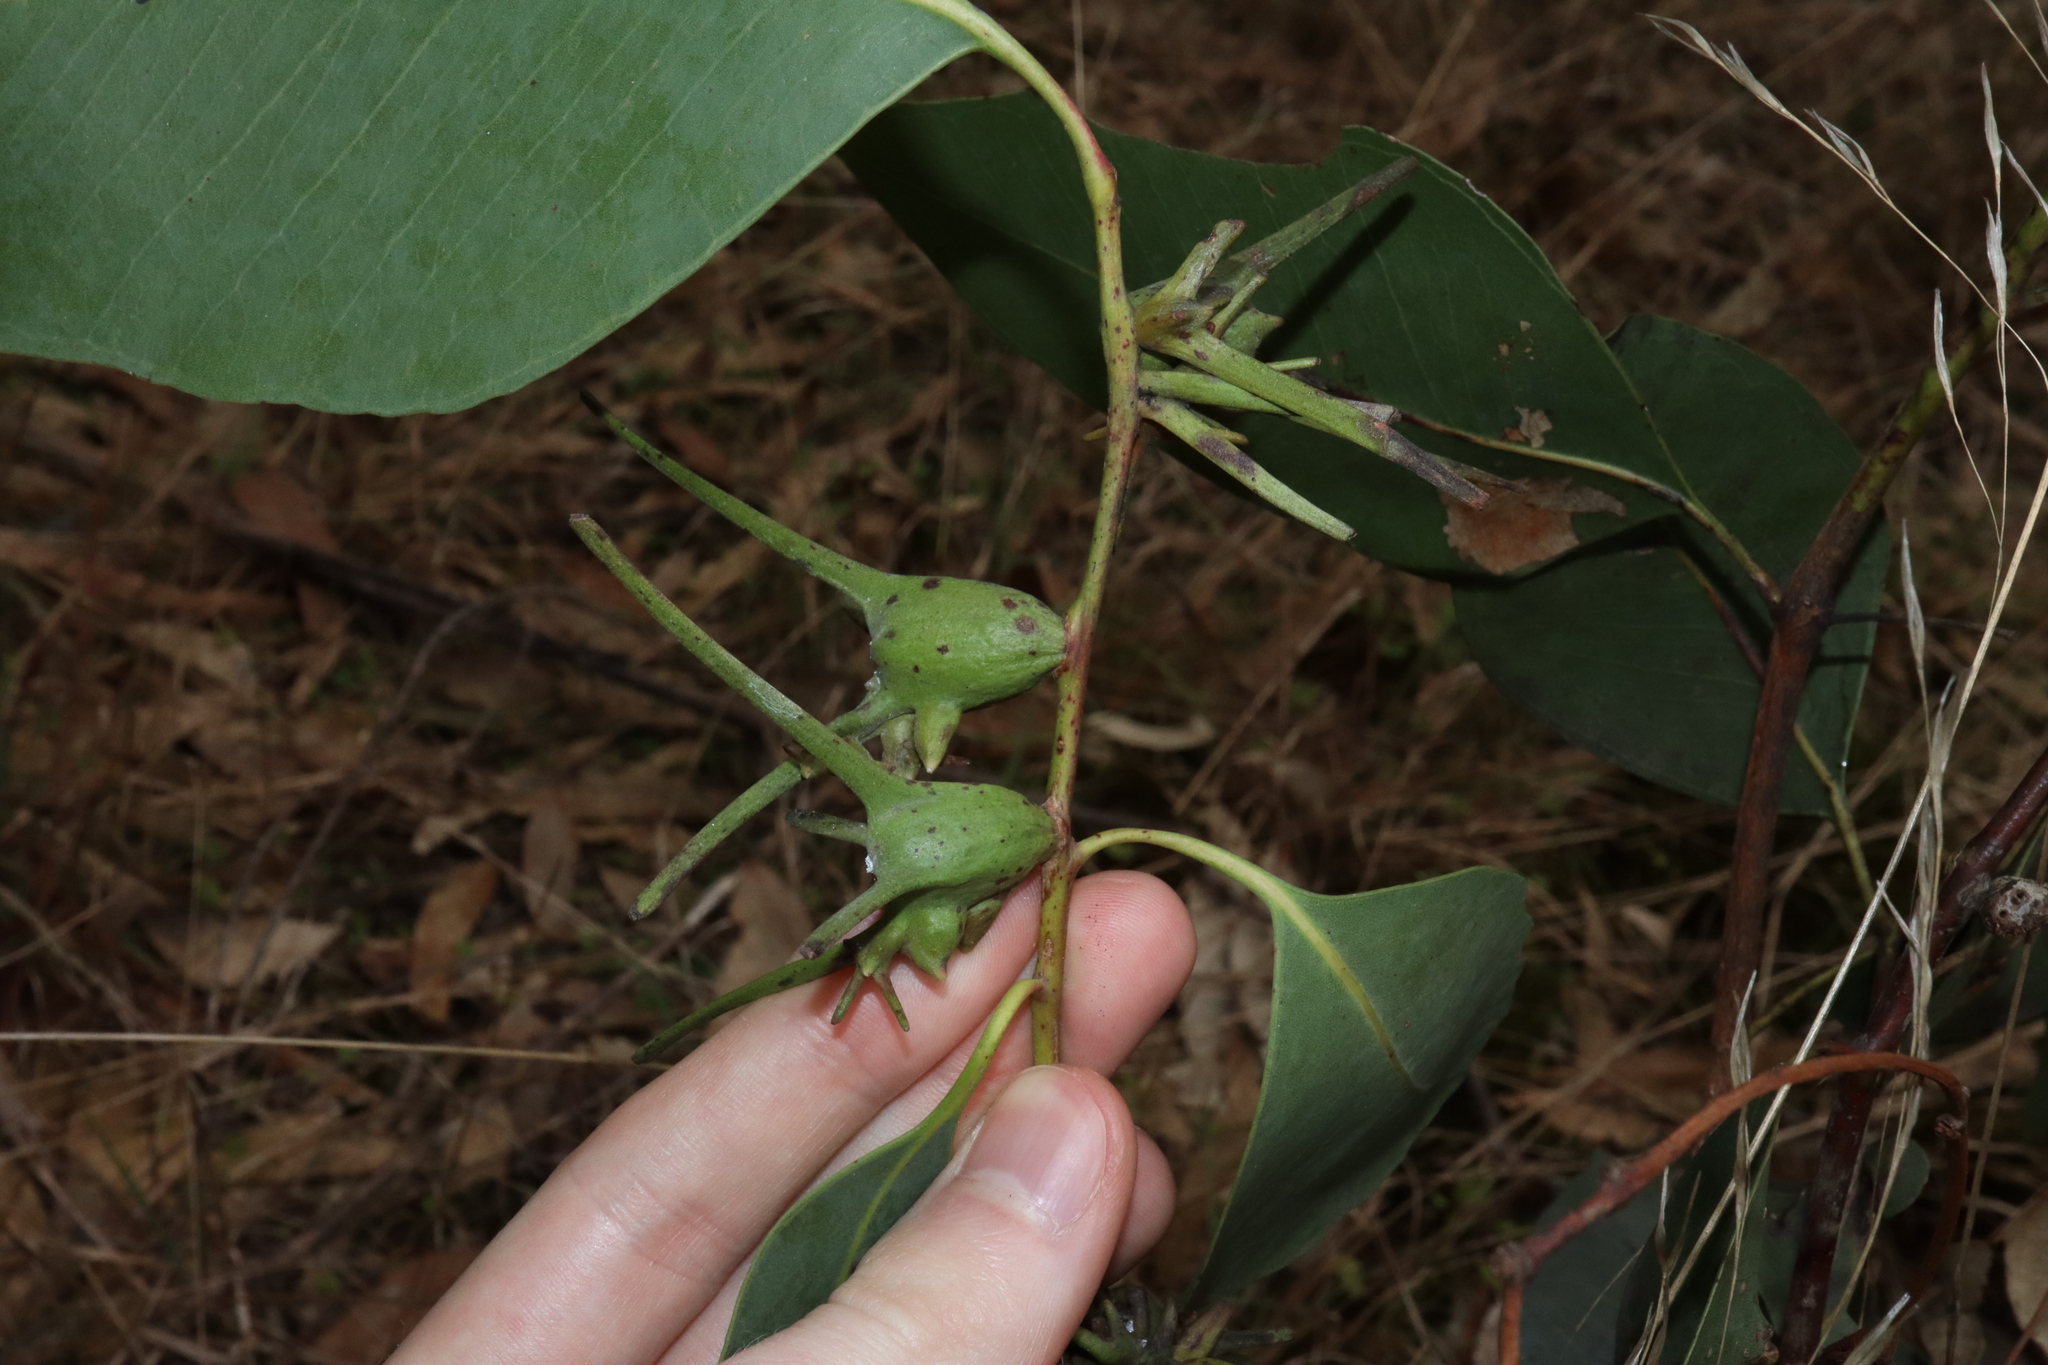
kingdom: Animalia
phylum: Arthropoda
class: Insecta
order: Hemiptera
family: Eriococcidae
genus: Apiomorpha
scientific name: Apiomorpha munita
